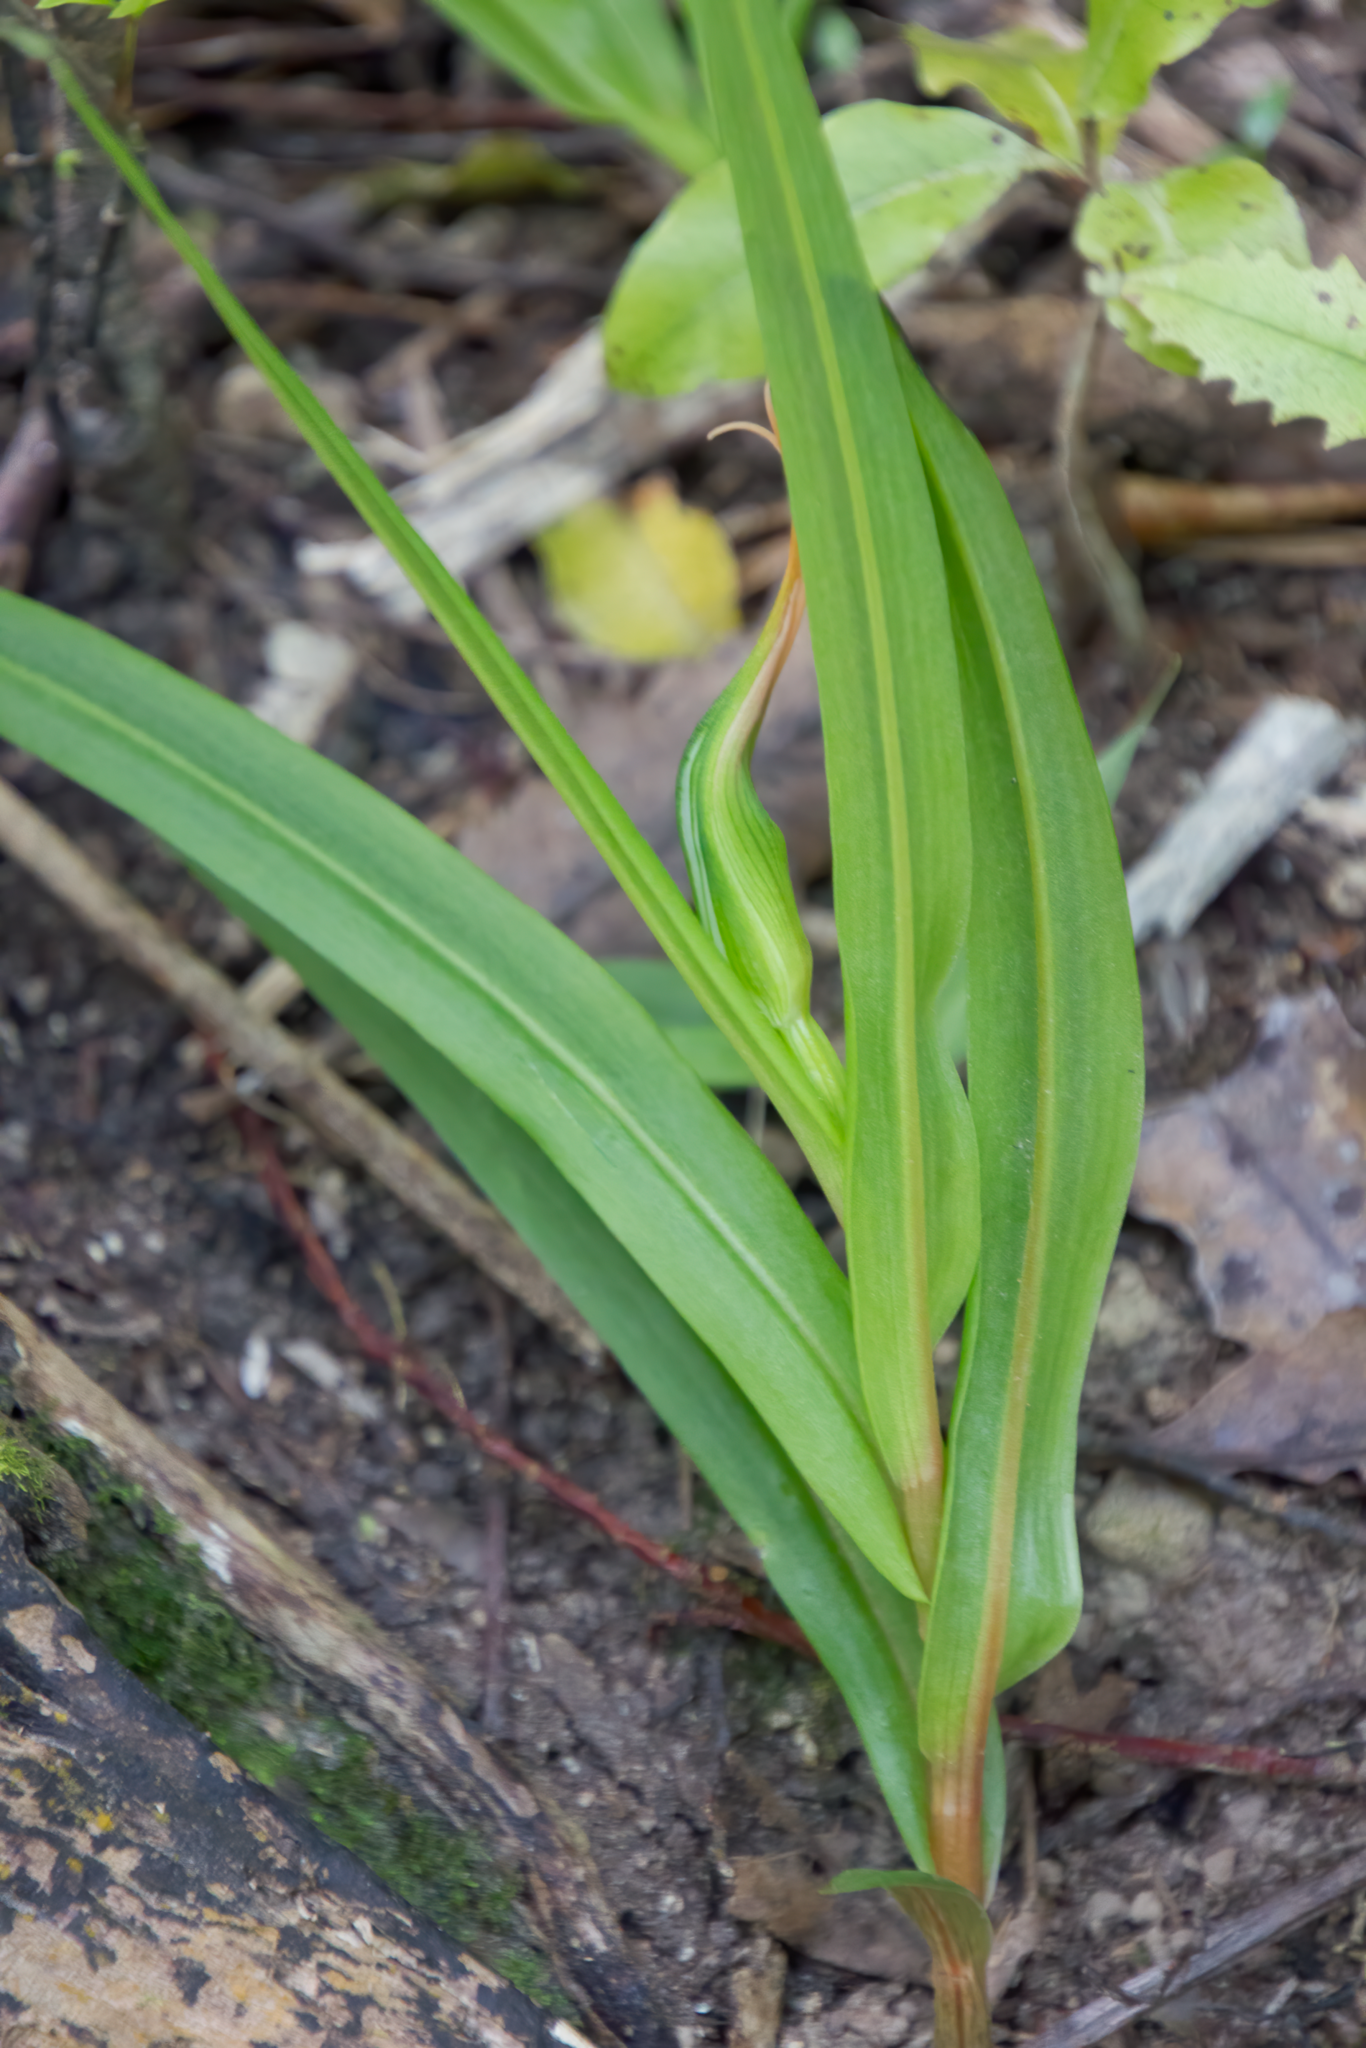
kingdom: Plantae
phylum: Tracheophyta
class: Liliopsida
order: Asparagales
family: Orchidaceae
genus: Pterostylis
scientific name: Pterostylis cardiostigma
